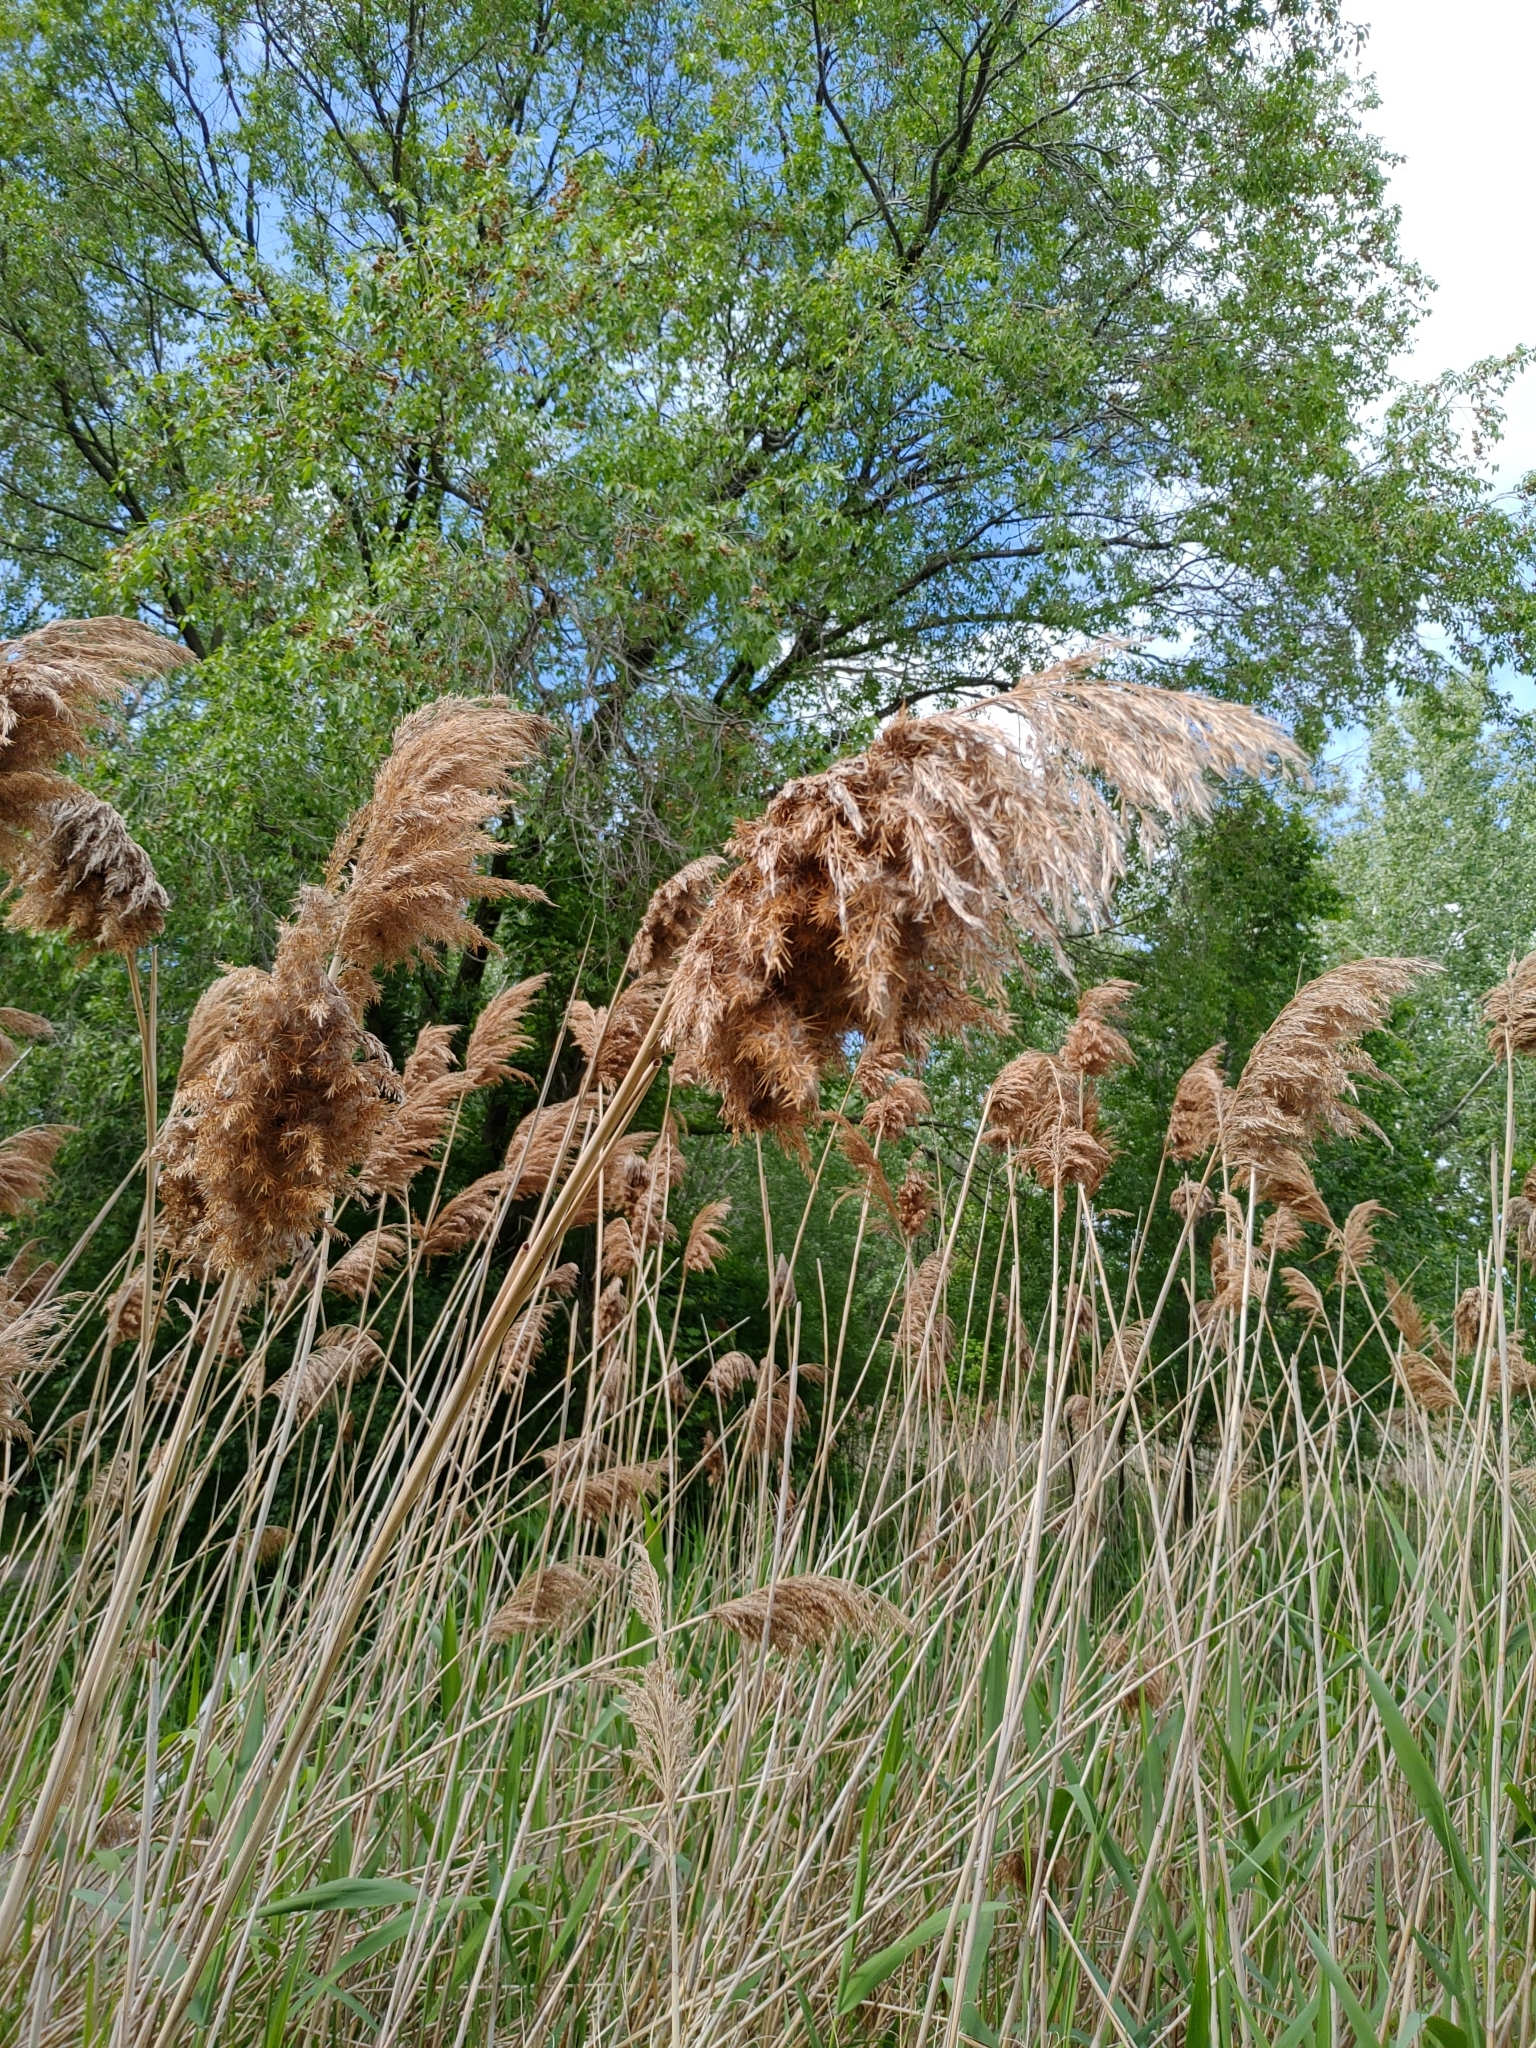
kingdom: Plantae
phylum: Tracheophyta
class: Liliopsida
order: Poales
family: Poaceae
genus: Phragmites
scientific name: Phragmites australis
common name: Common reed
